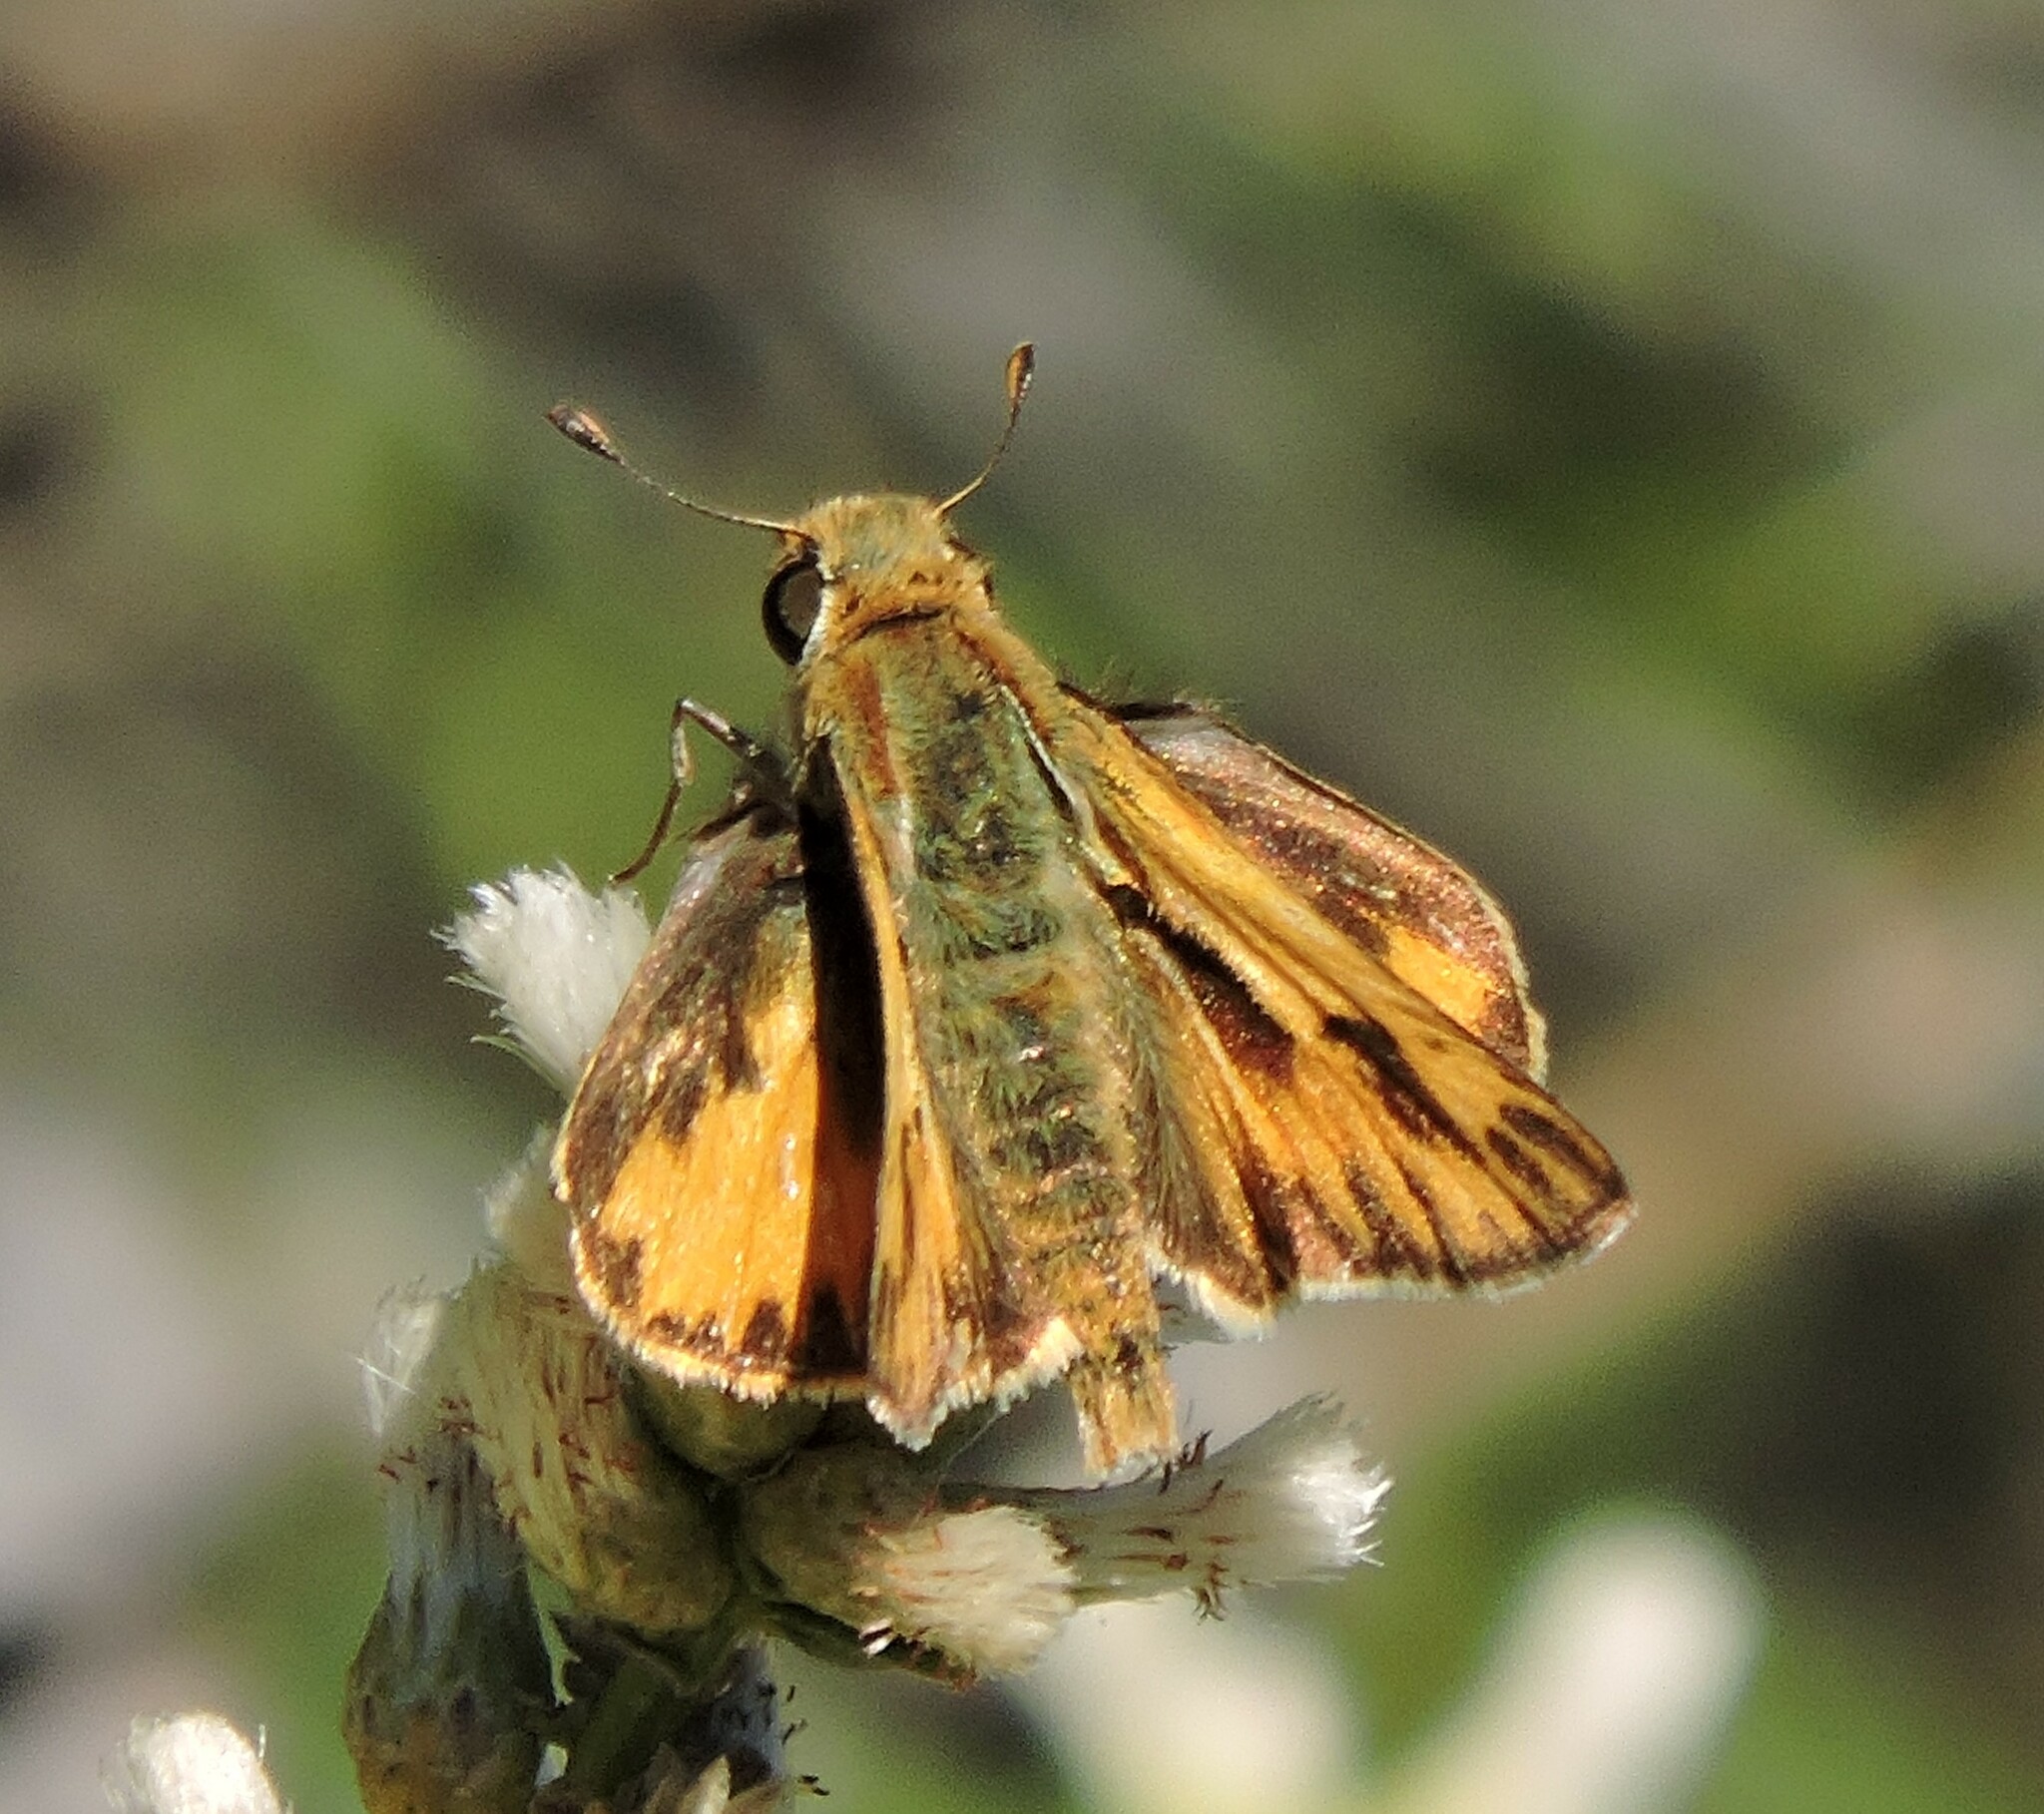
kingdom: Animalia
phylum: Arthropoda
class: Insecta
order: Lepidoptera
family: Hesperiidae
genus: Hylephila
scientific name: Hylephila phyleus
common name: Fiery skipper
